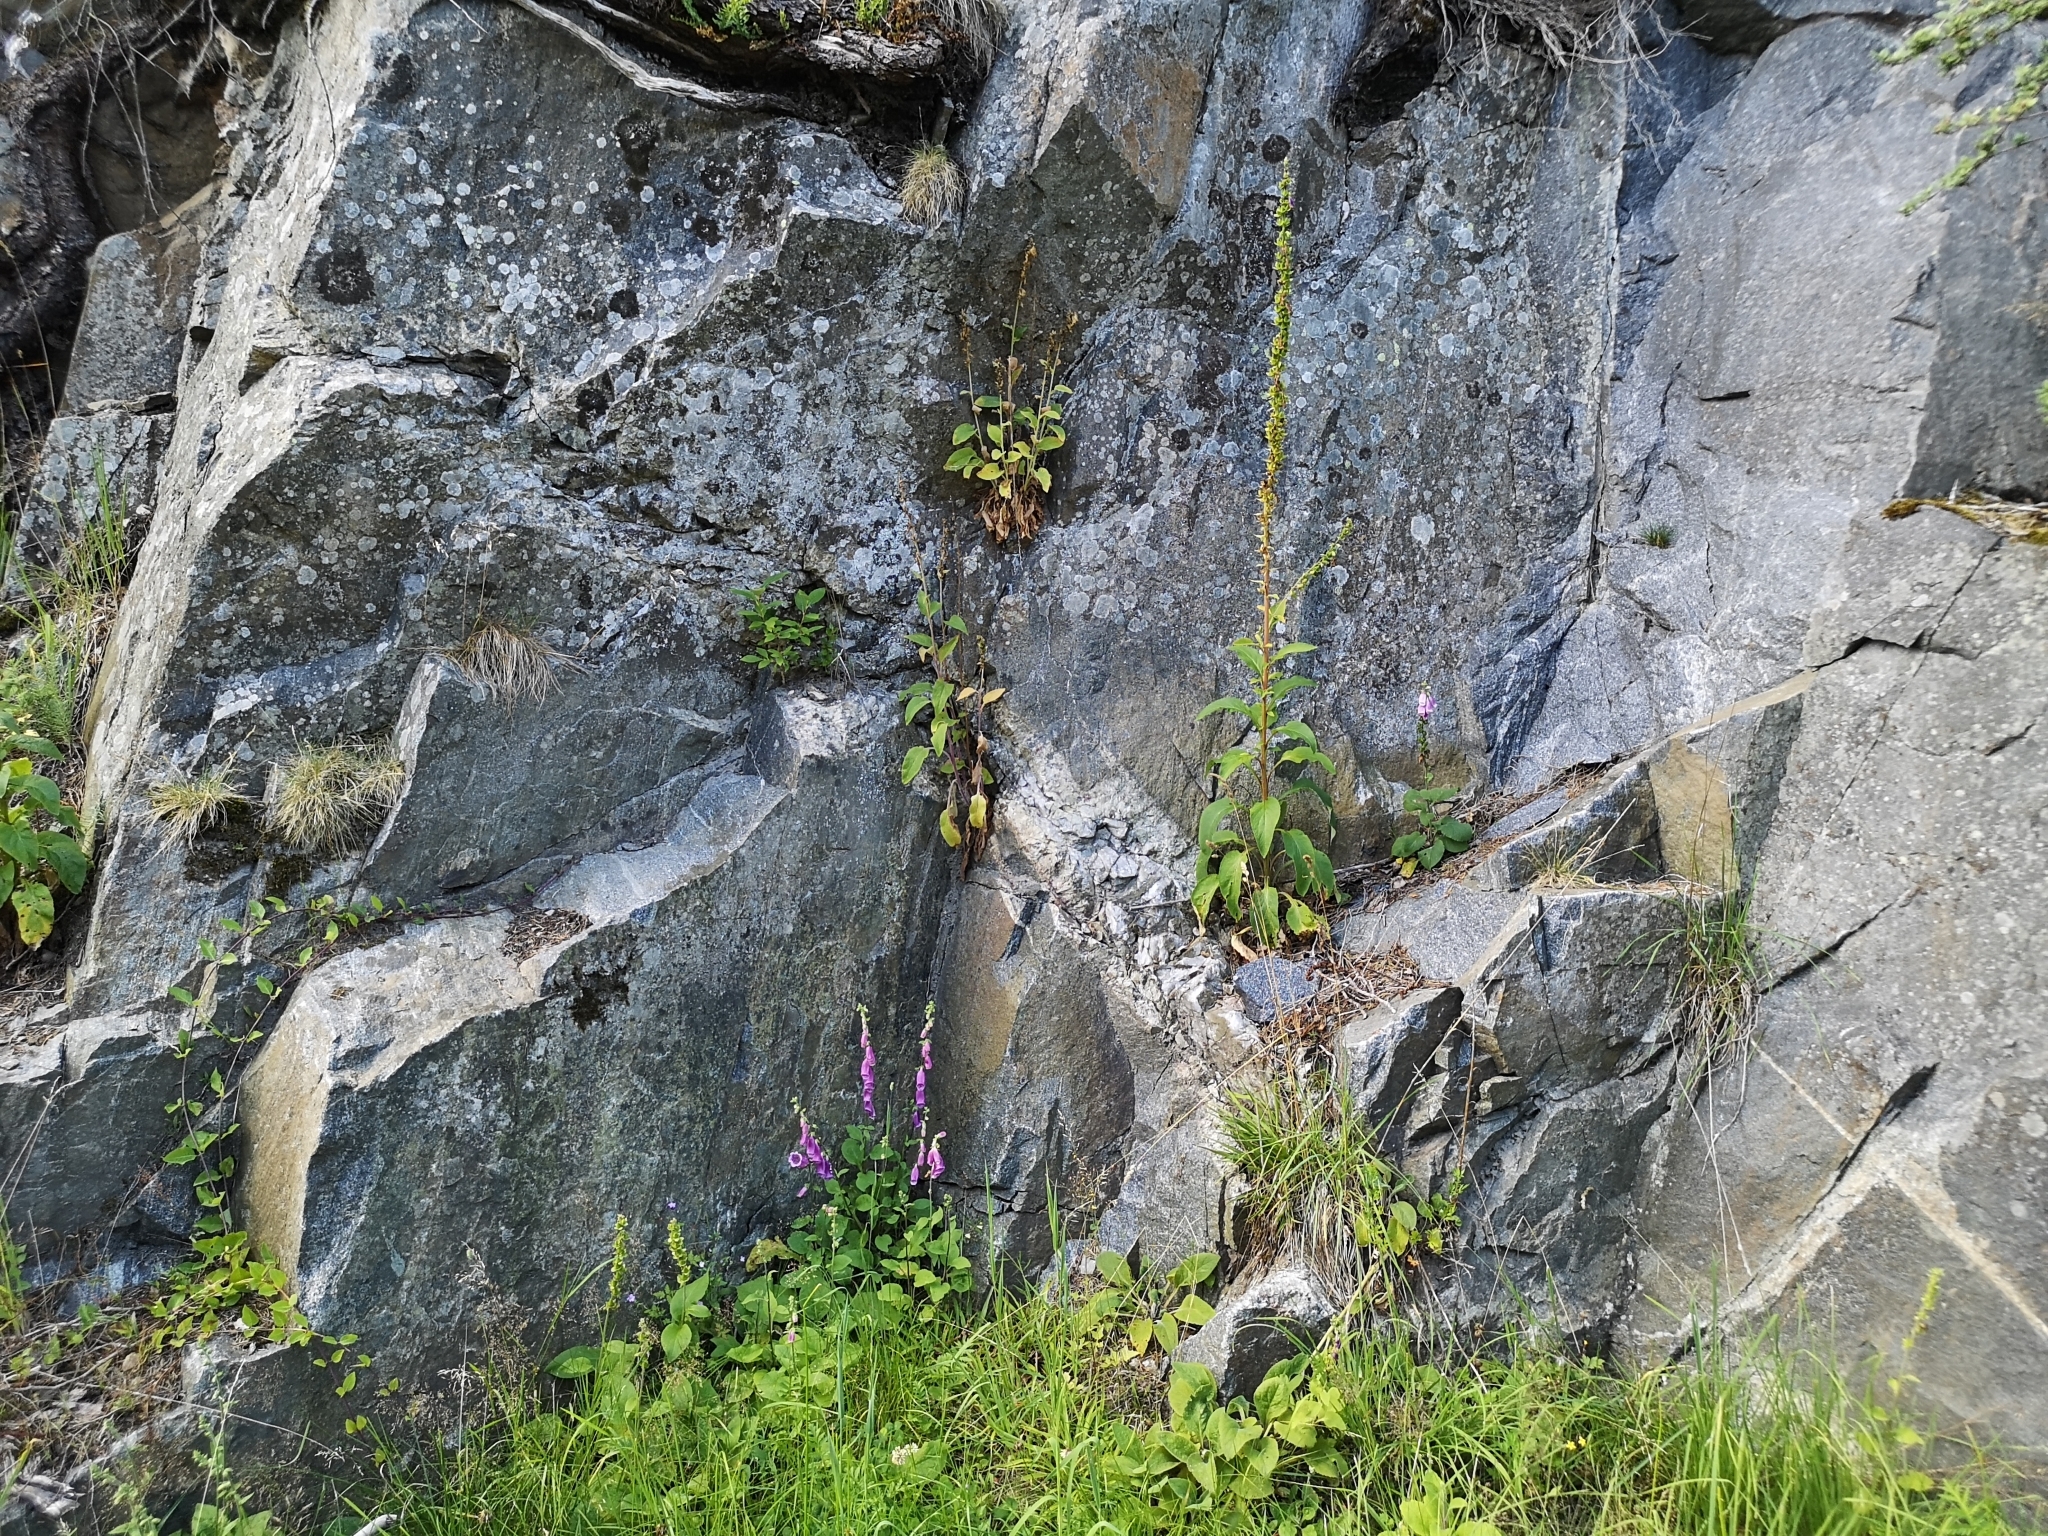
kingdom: Plantae
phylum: Tracheophyta
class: Magnoliopsida
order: Lamiales
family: Plantaginaceae
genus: Digitalis
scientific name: Digitalis purpurea
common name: Foxglove
